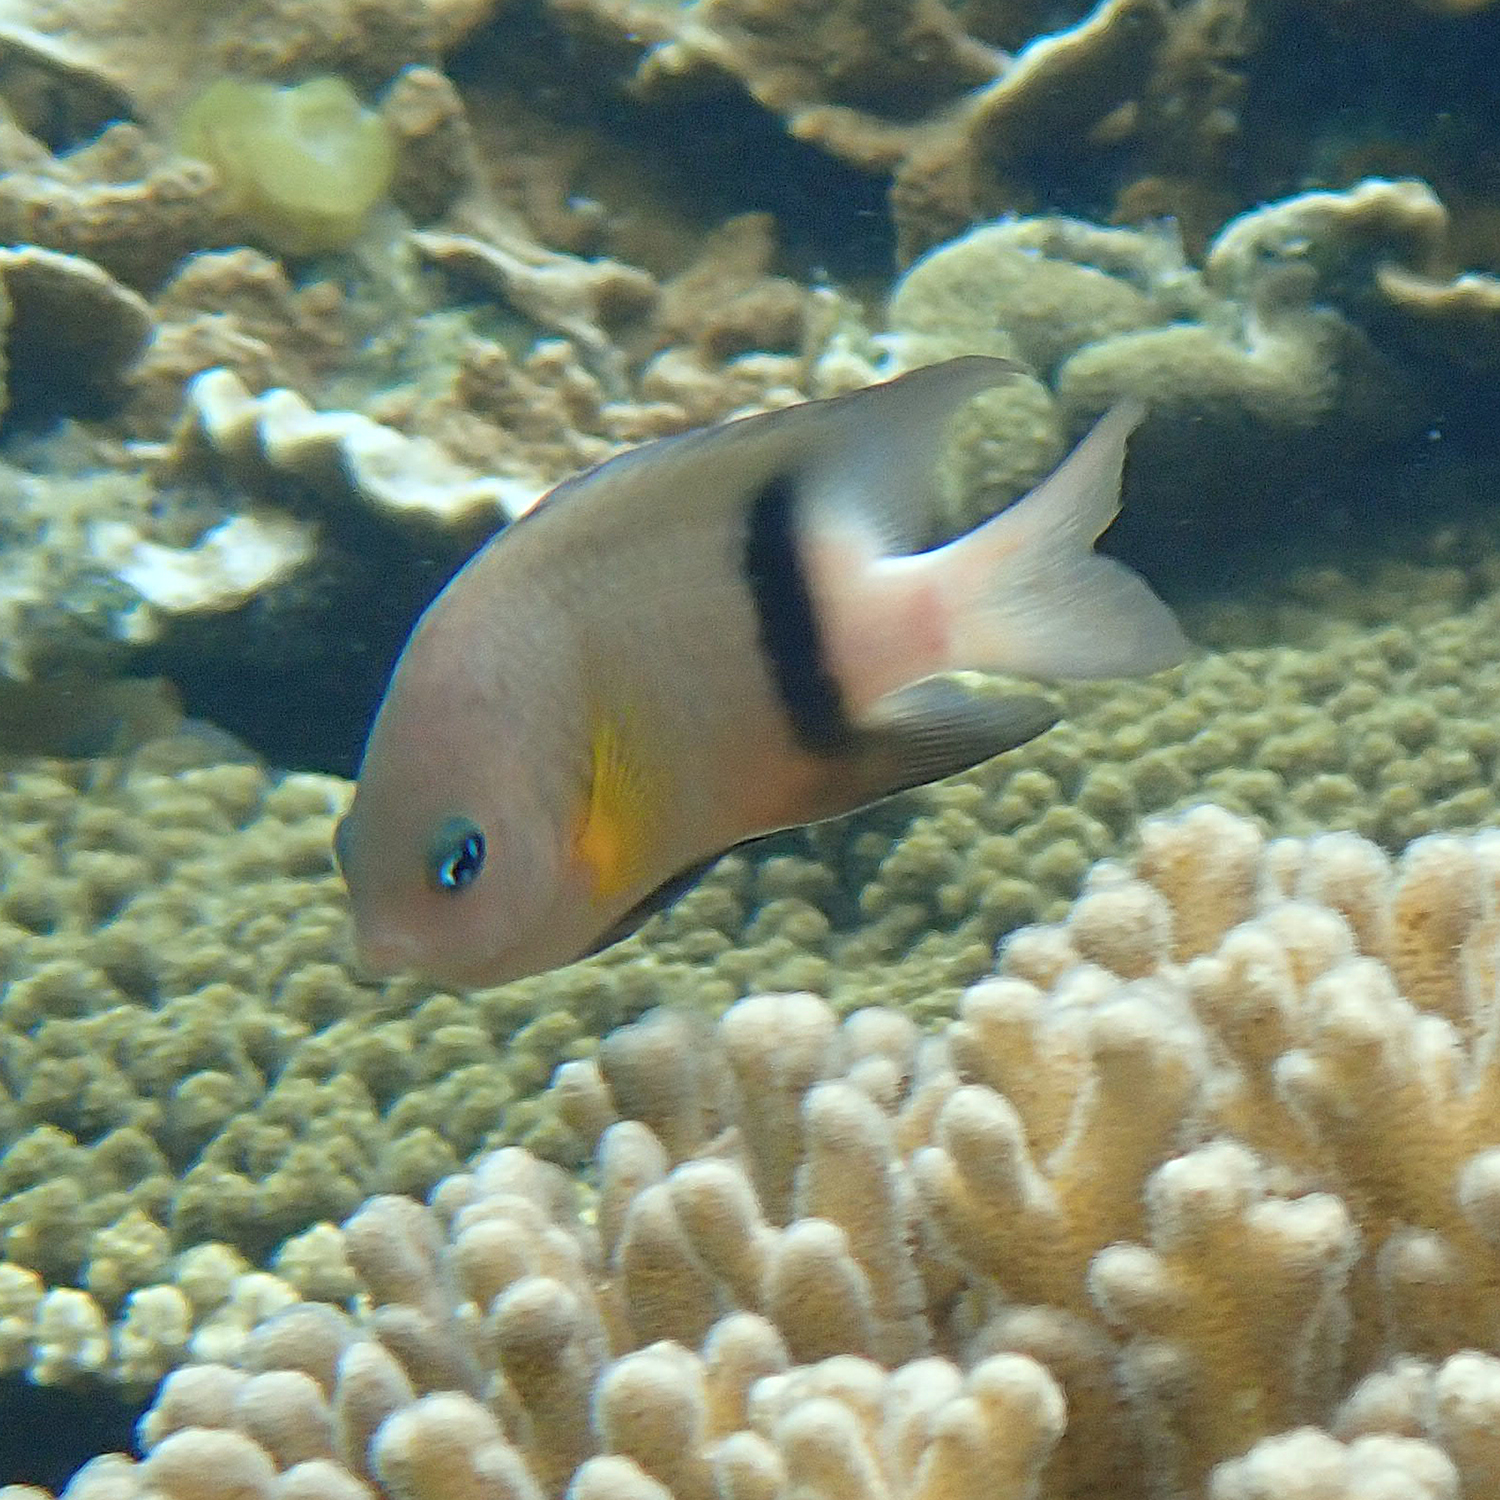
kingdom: Animalia
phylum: Chordata
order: Perciformes
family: Pomacentridae
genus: Plectroglyphidodon
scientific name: Plectroglyphidodon dickii
